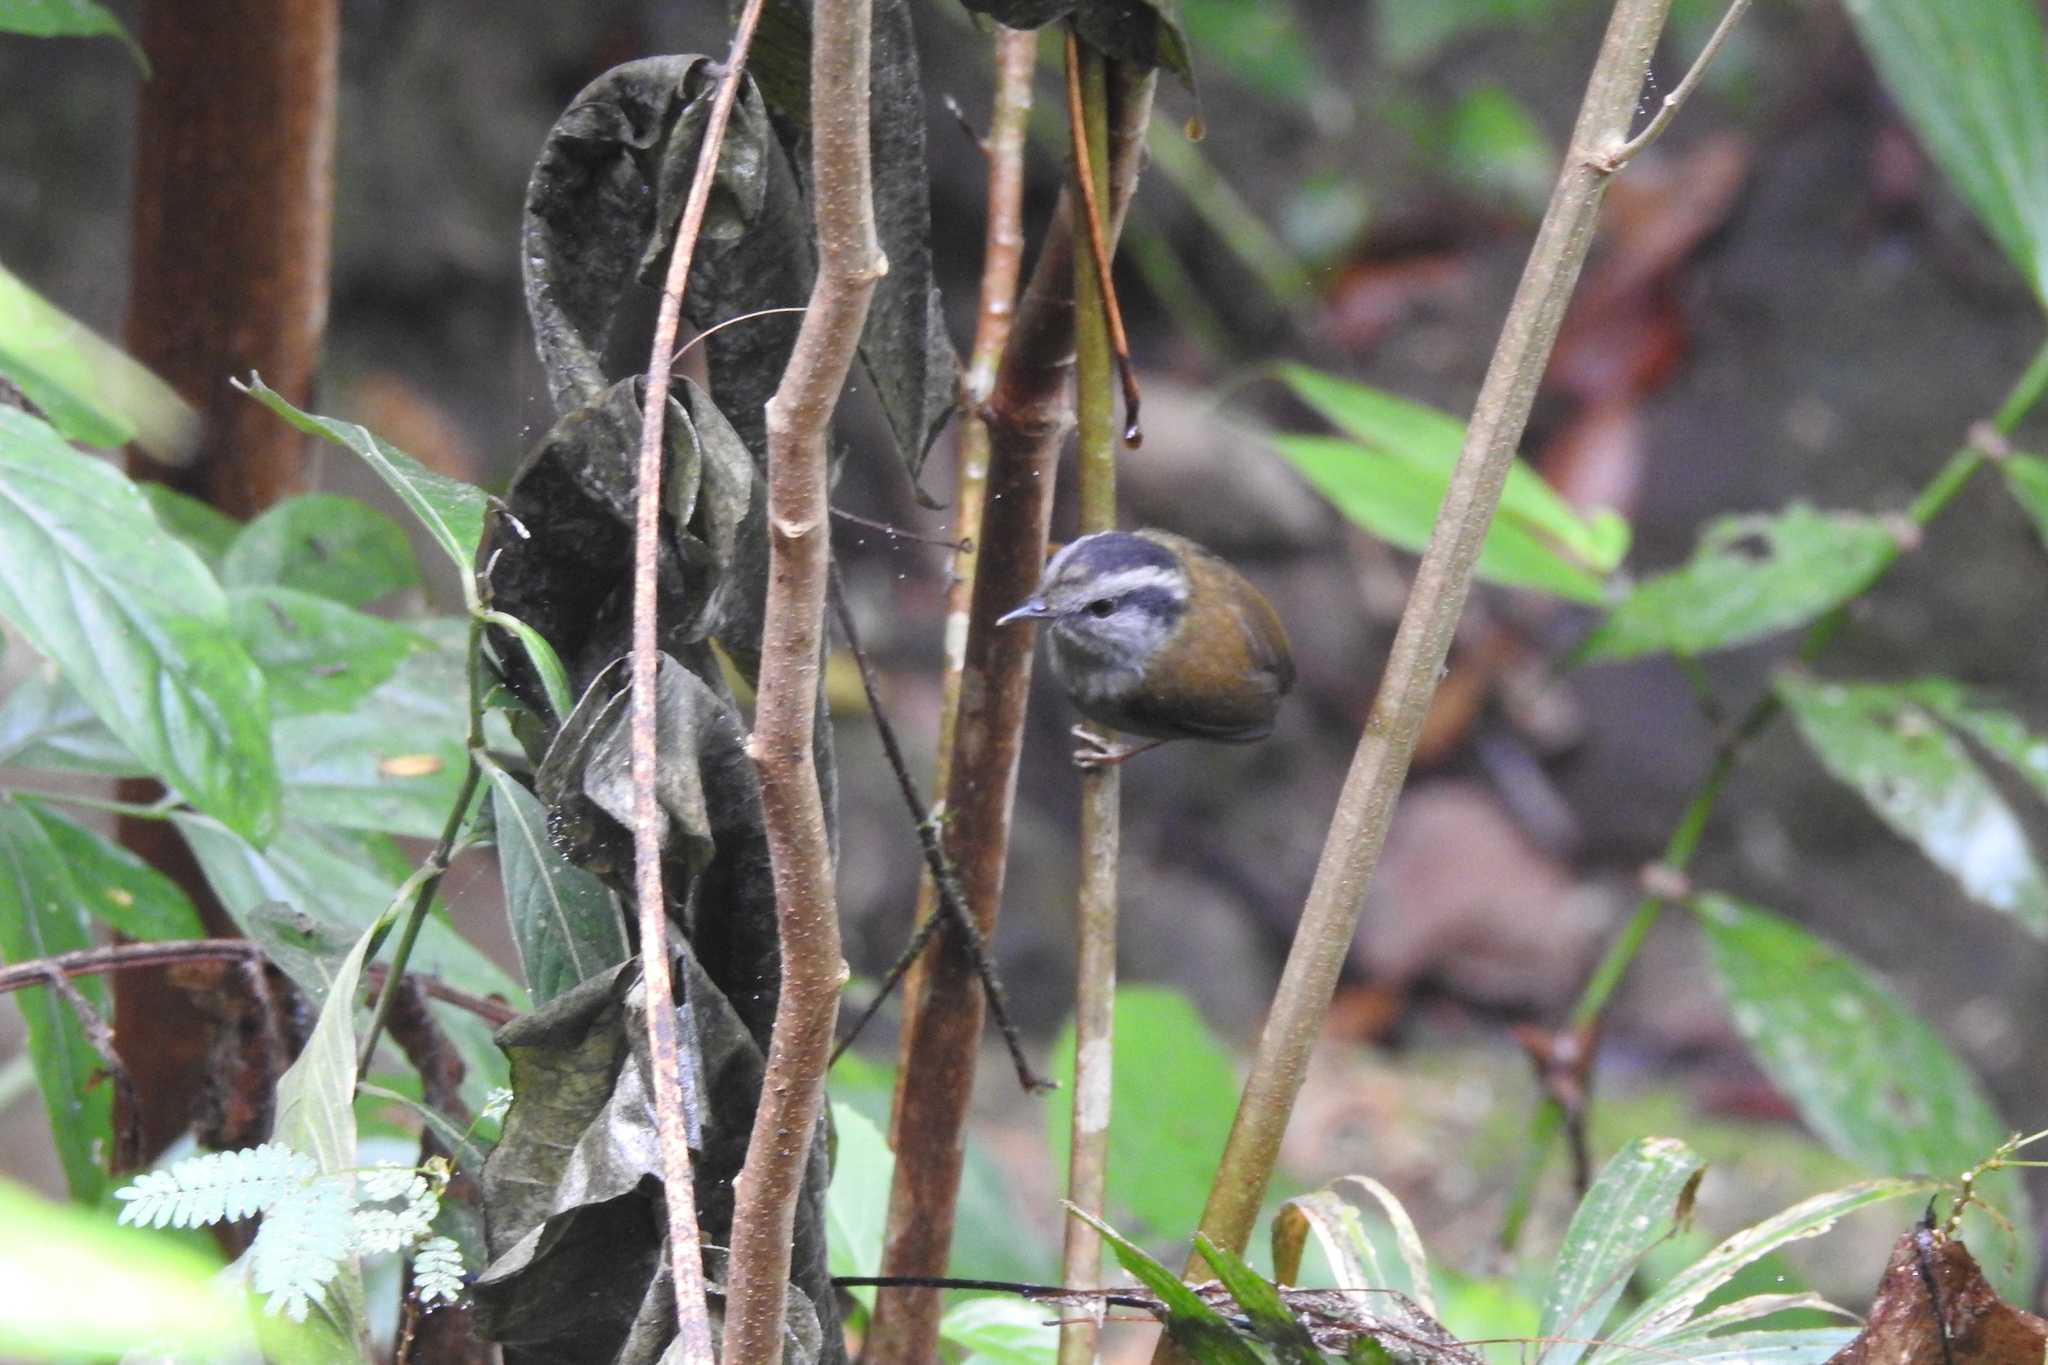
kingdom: Animalia
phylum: Chordata
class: Aves
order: Passeriformes
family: Cettiidae
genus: Tesia
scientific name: Tesia superciliaris
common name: Javan tesia
